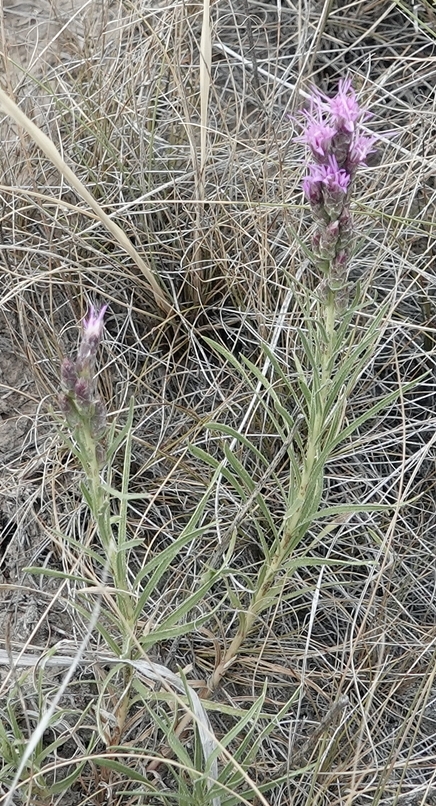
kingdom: Plantae
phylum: Tracheophyta
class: Magnoliopsida
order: Asterales
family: Asteraceae
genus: Liatris
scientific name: Liatris punctata
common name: Dotted gayfeather
